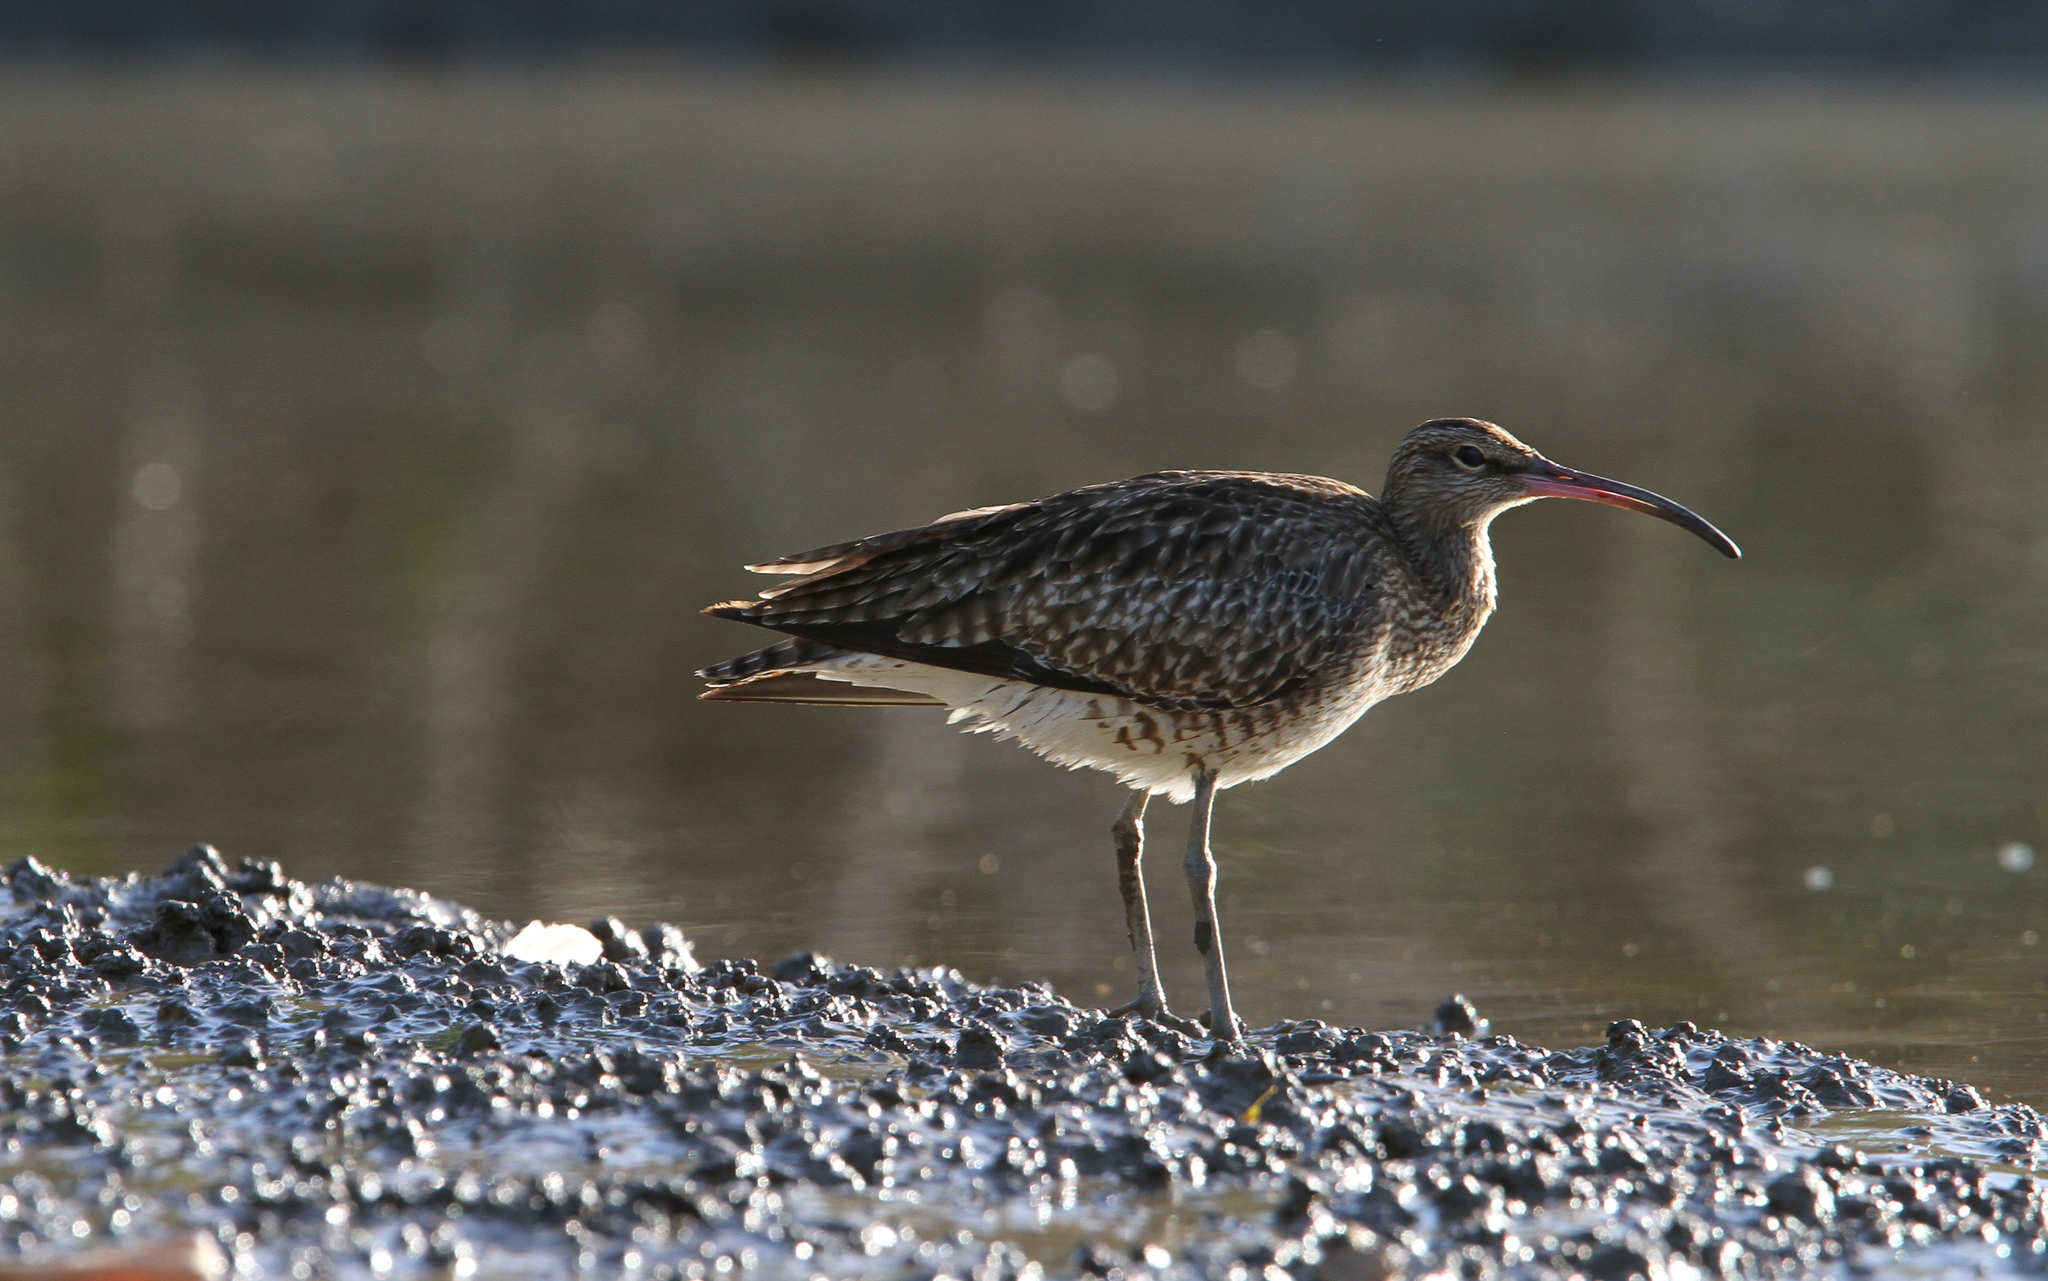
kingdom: Animalia
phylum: Chordata
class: Aves
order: Charadriiformes
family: Scolopacidae
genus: Numenius
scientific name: Numenius phaeopus
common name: Whimbrel
